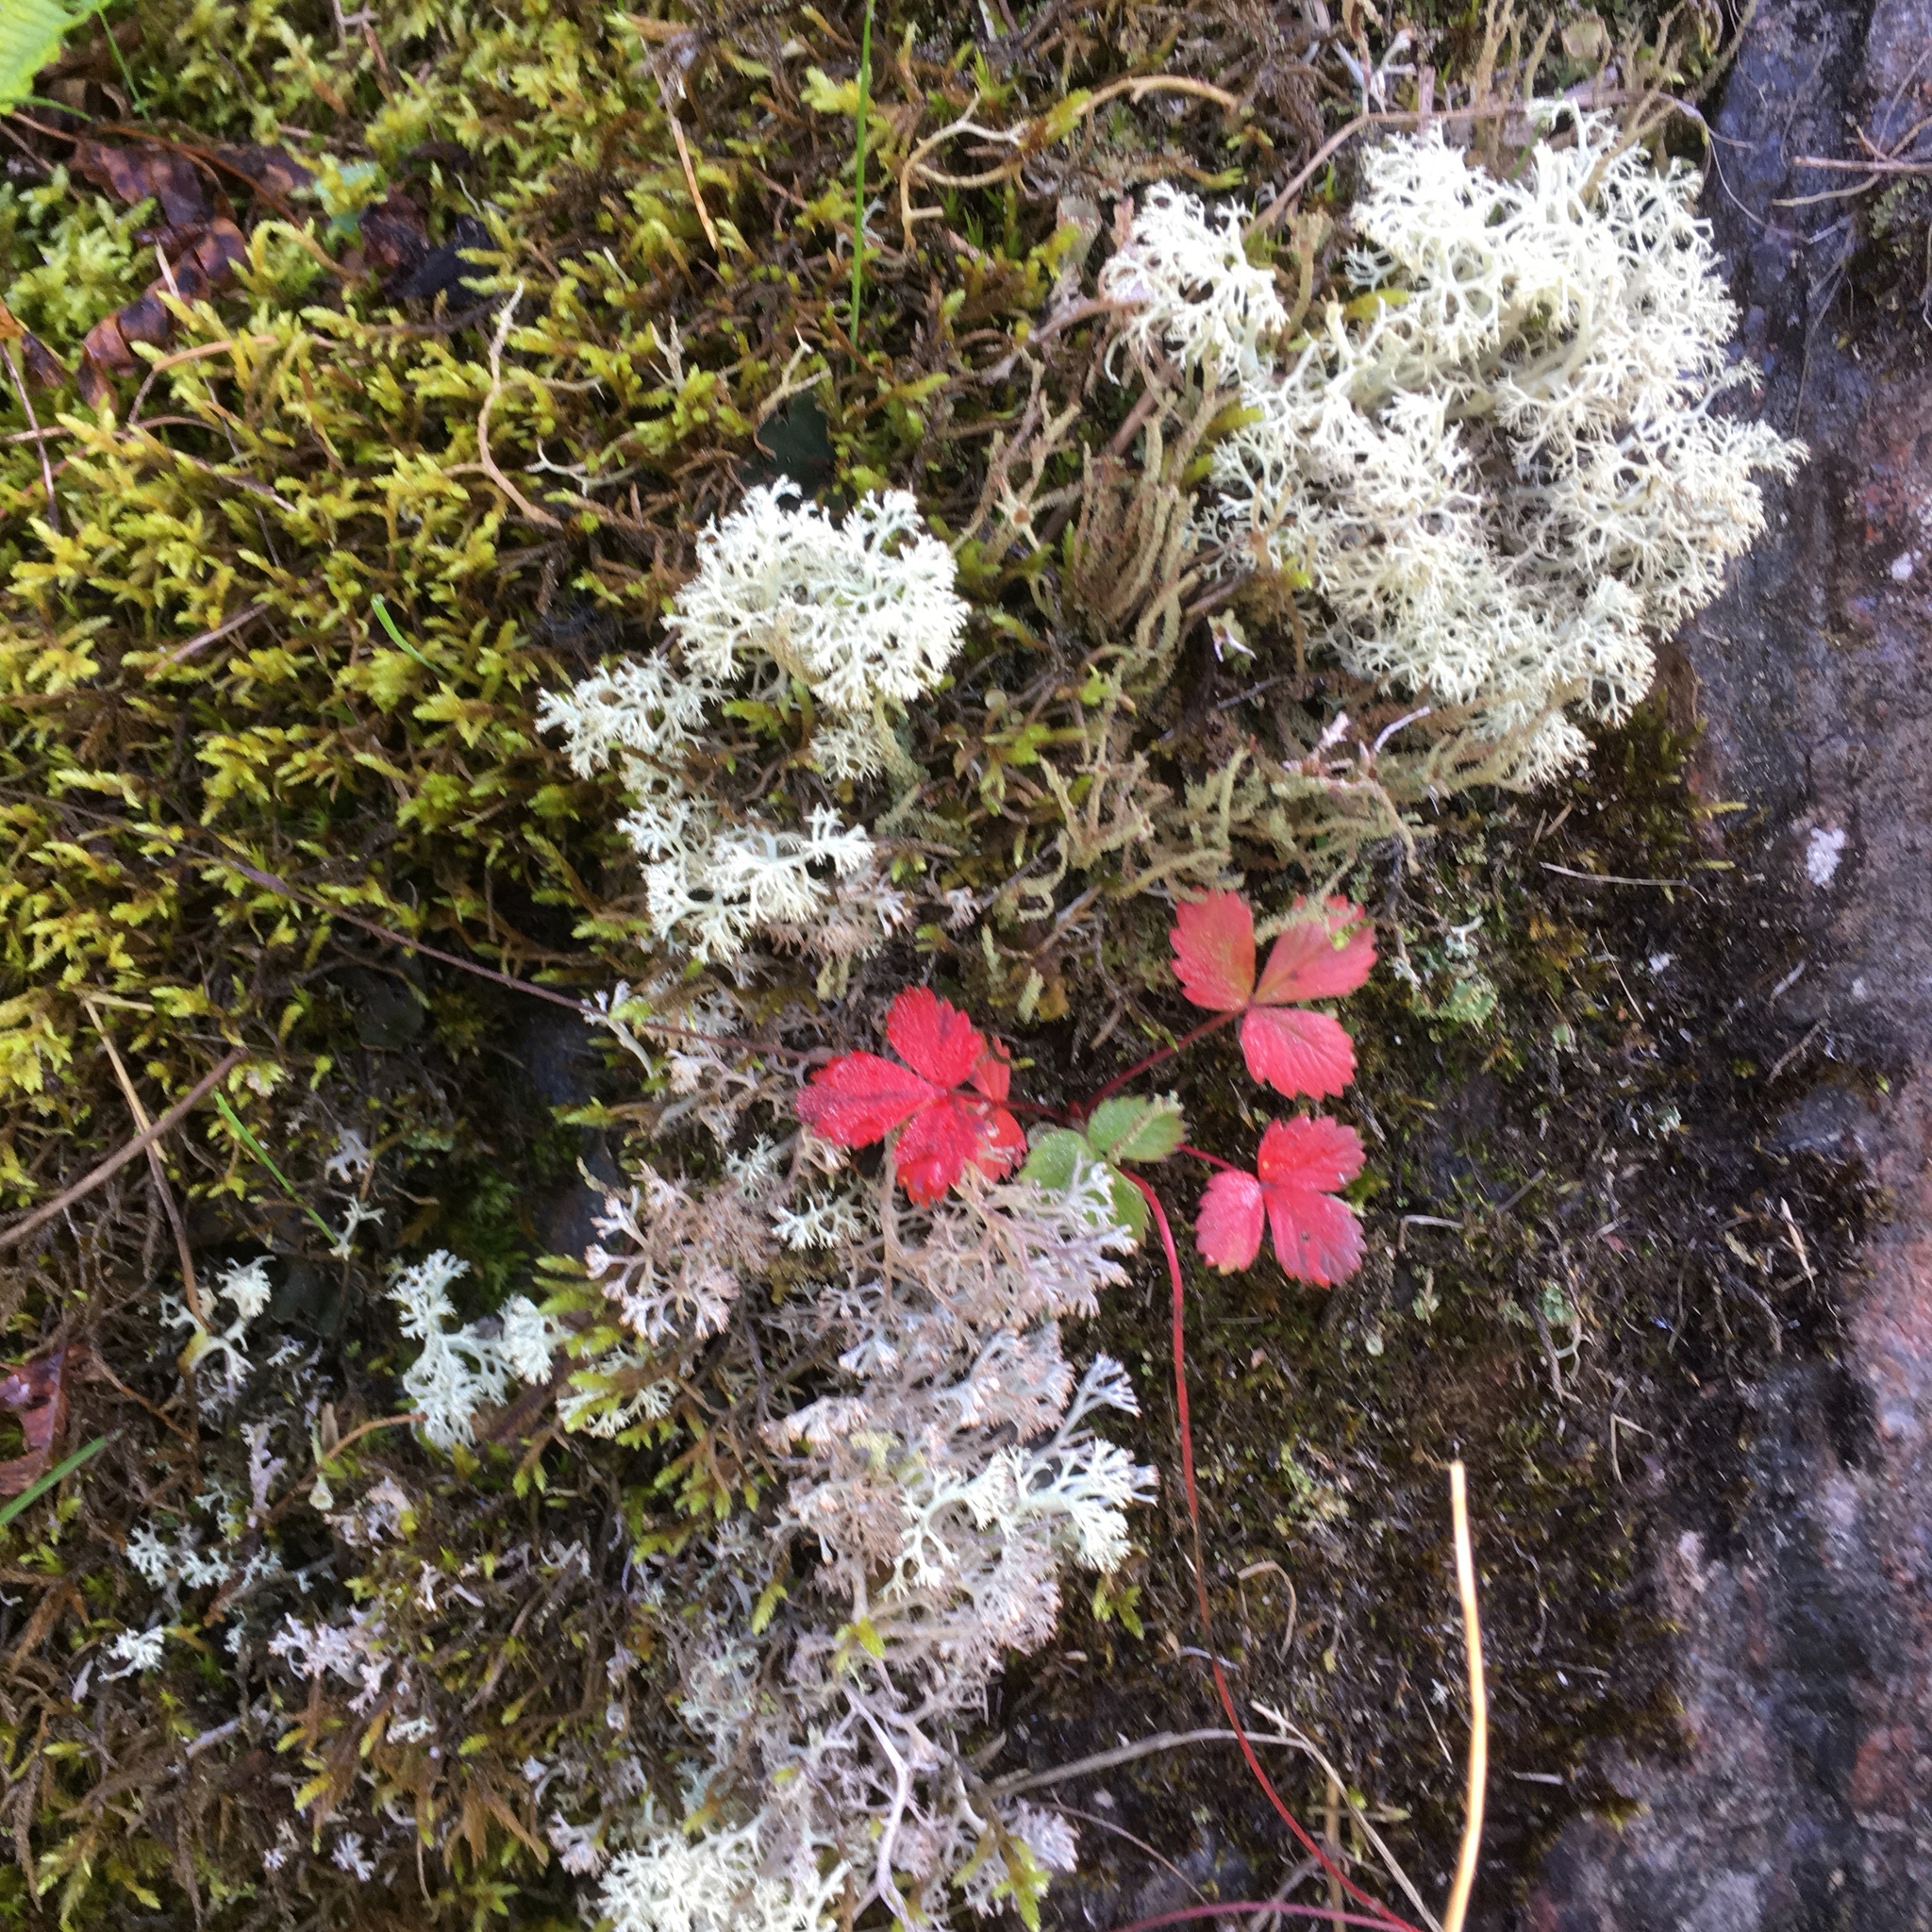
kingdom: Plantae
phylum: Tracheophyta
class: Magnoliopsida
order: Rosales
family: Rosaceae
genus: Fragaria
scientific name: Fragaria vesca
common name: Wild strawberry
